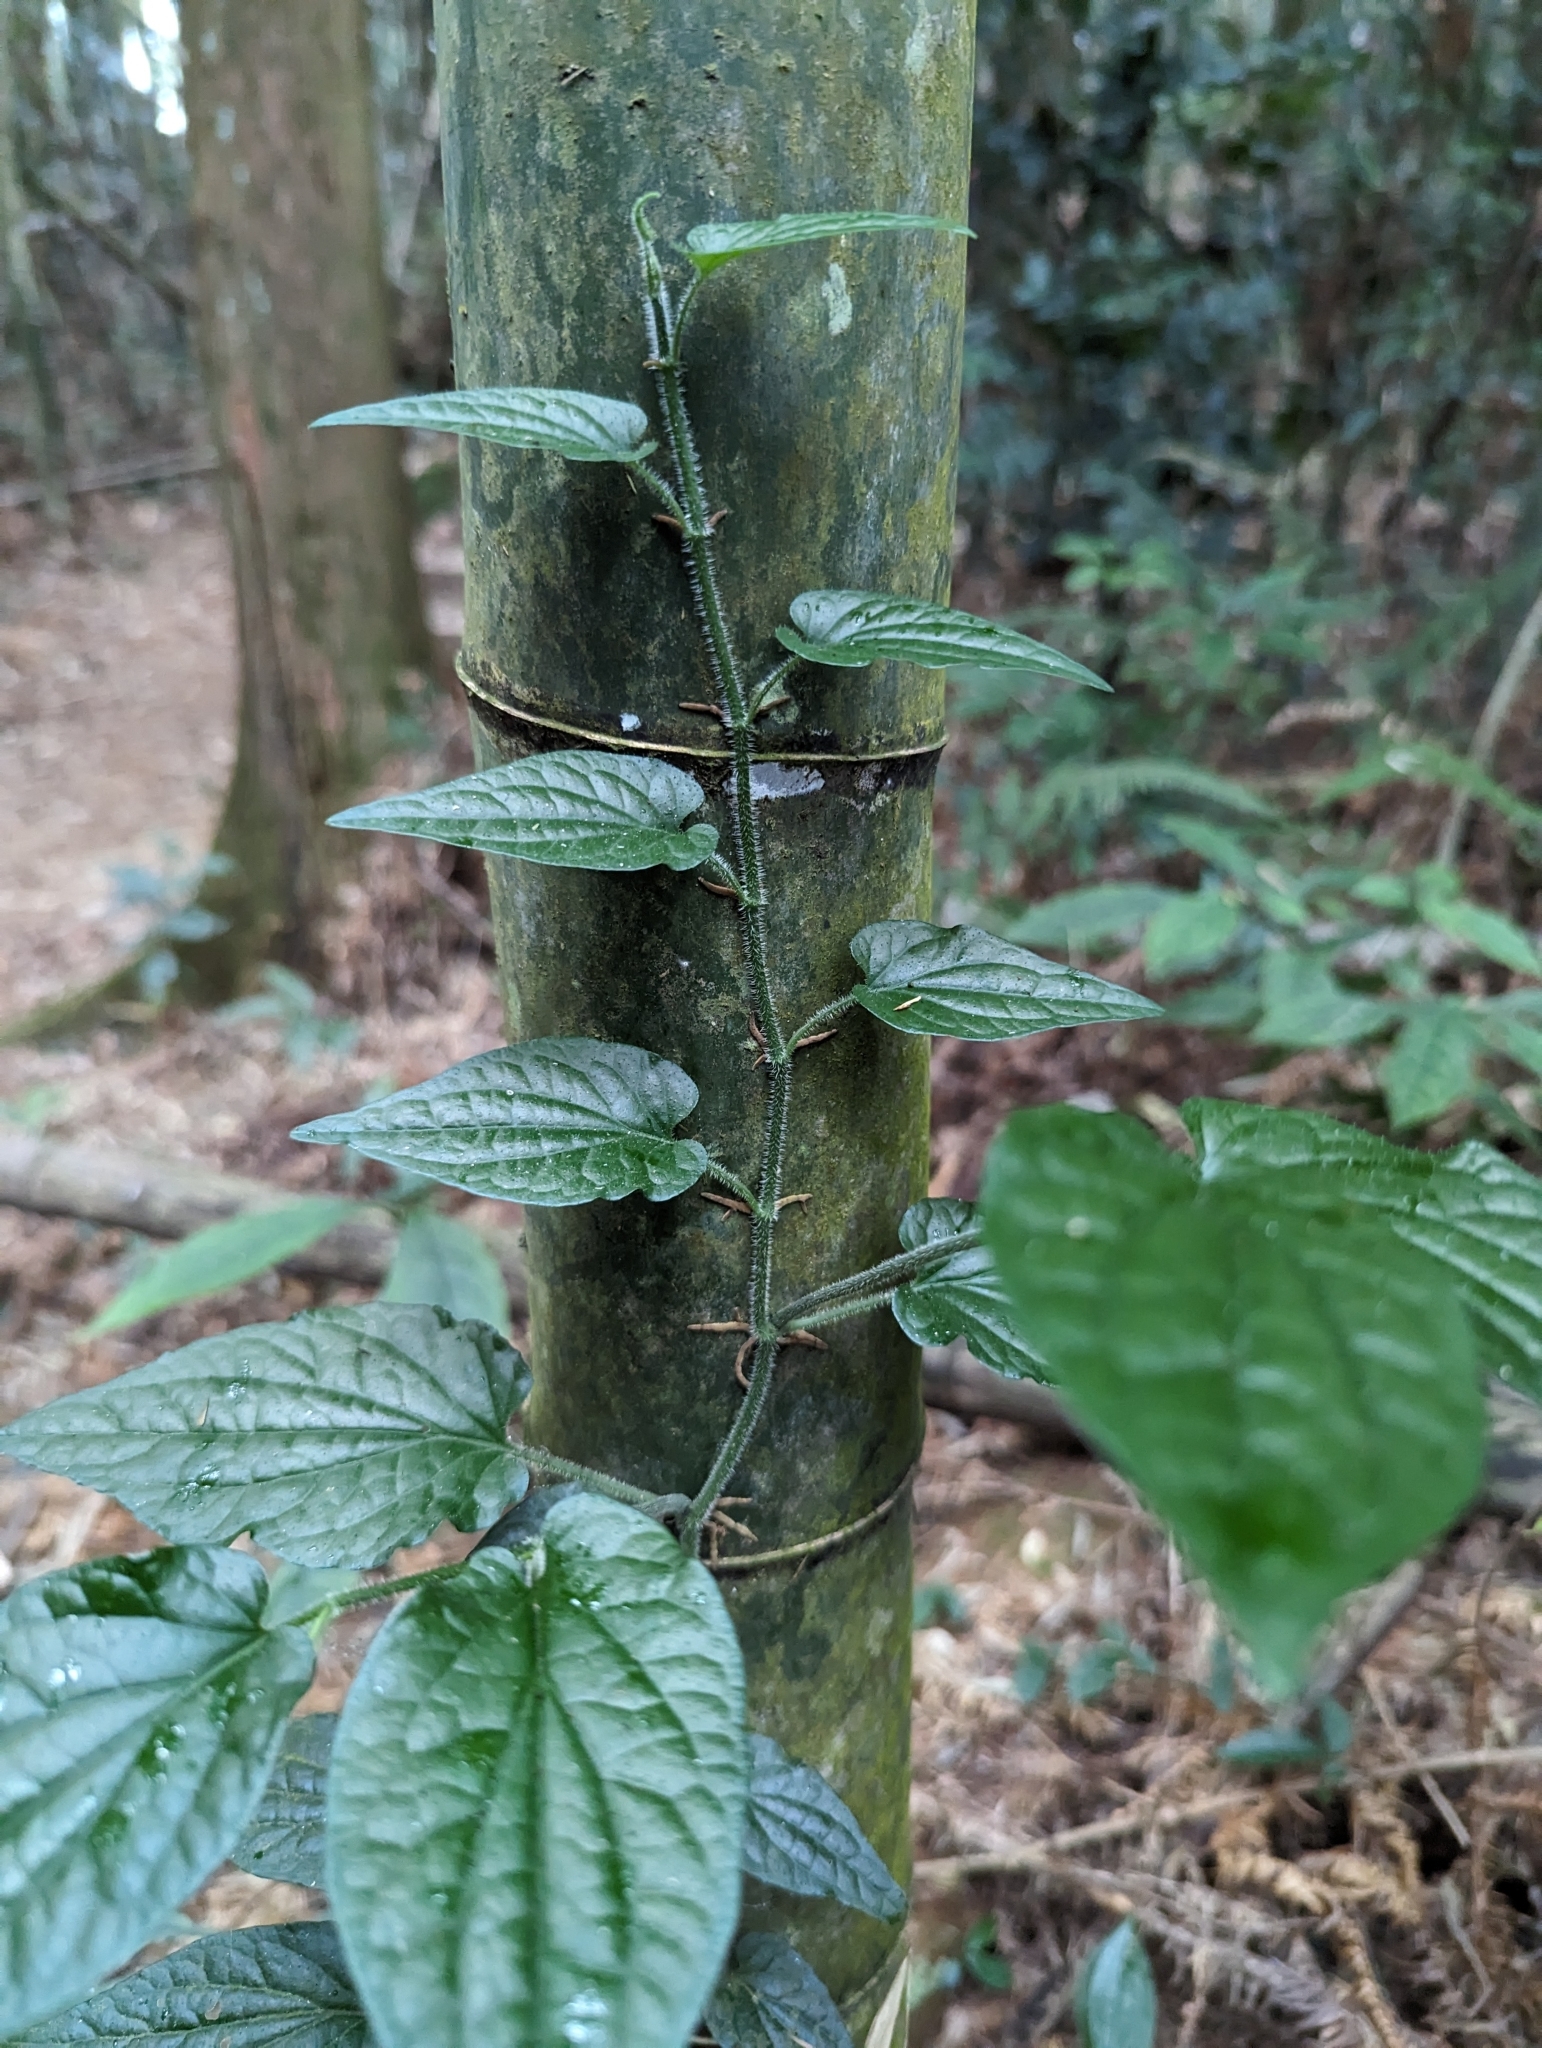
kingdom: Plantae
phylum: Tracheophyta
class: Magnoliopsida
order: Piperales
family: Piperaceae
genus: Piper
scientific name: Piper sintenense
